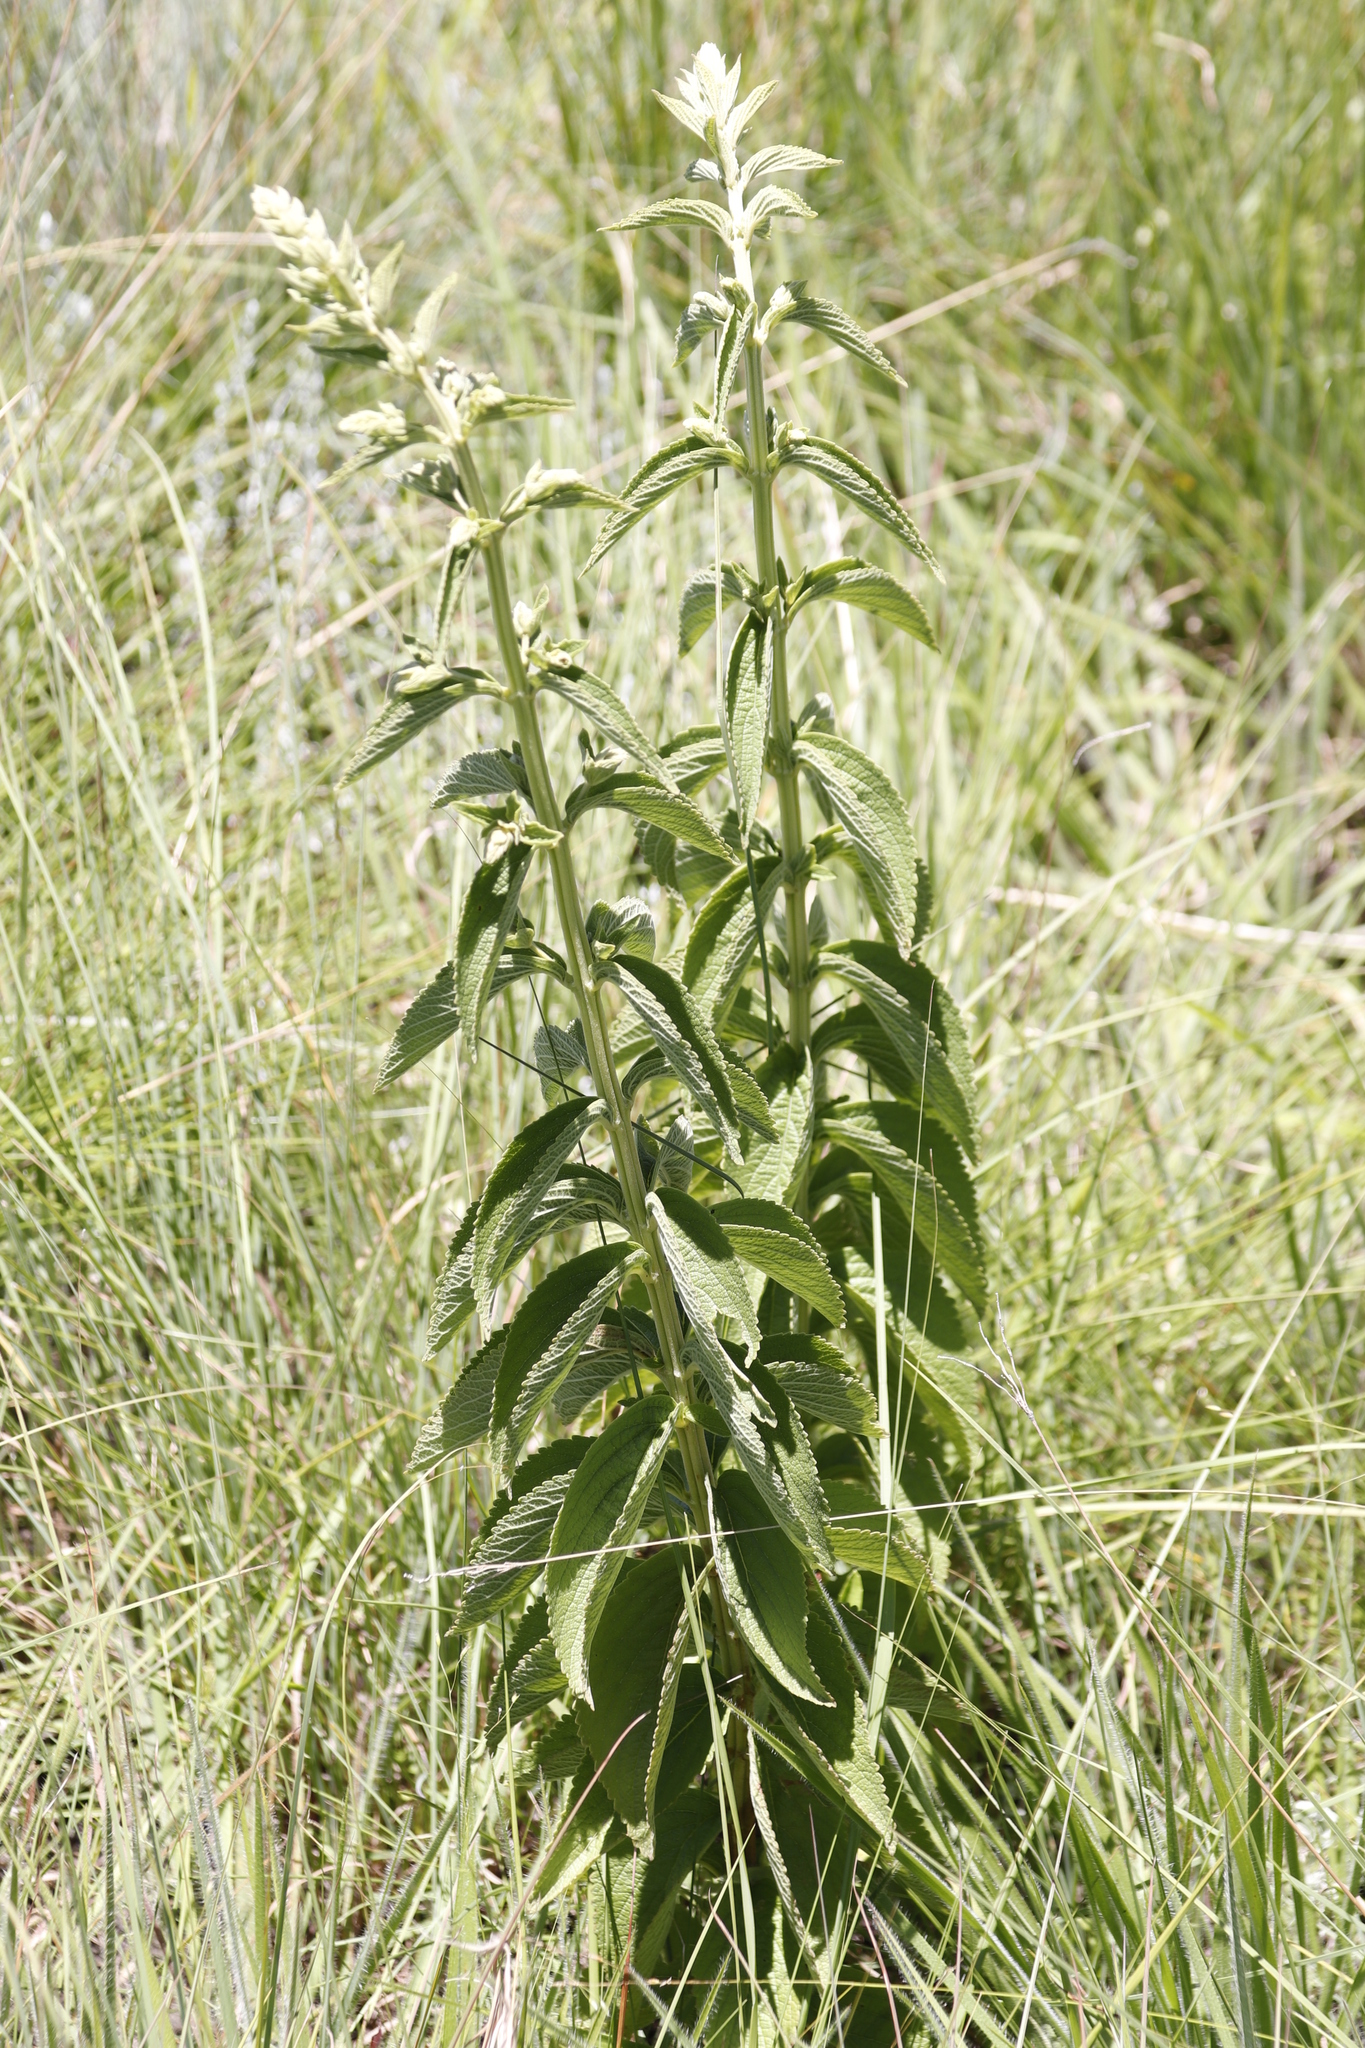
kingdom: Plantae
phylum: Tracheophyta
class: Magnoliopsida
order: Lamiales
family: Lamiaceae
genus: Coleus
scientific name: Coleus calycinus
